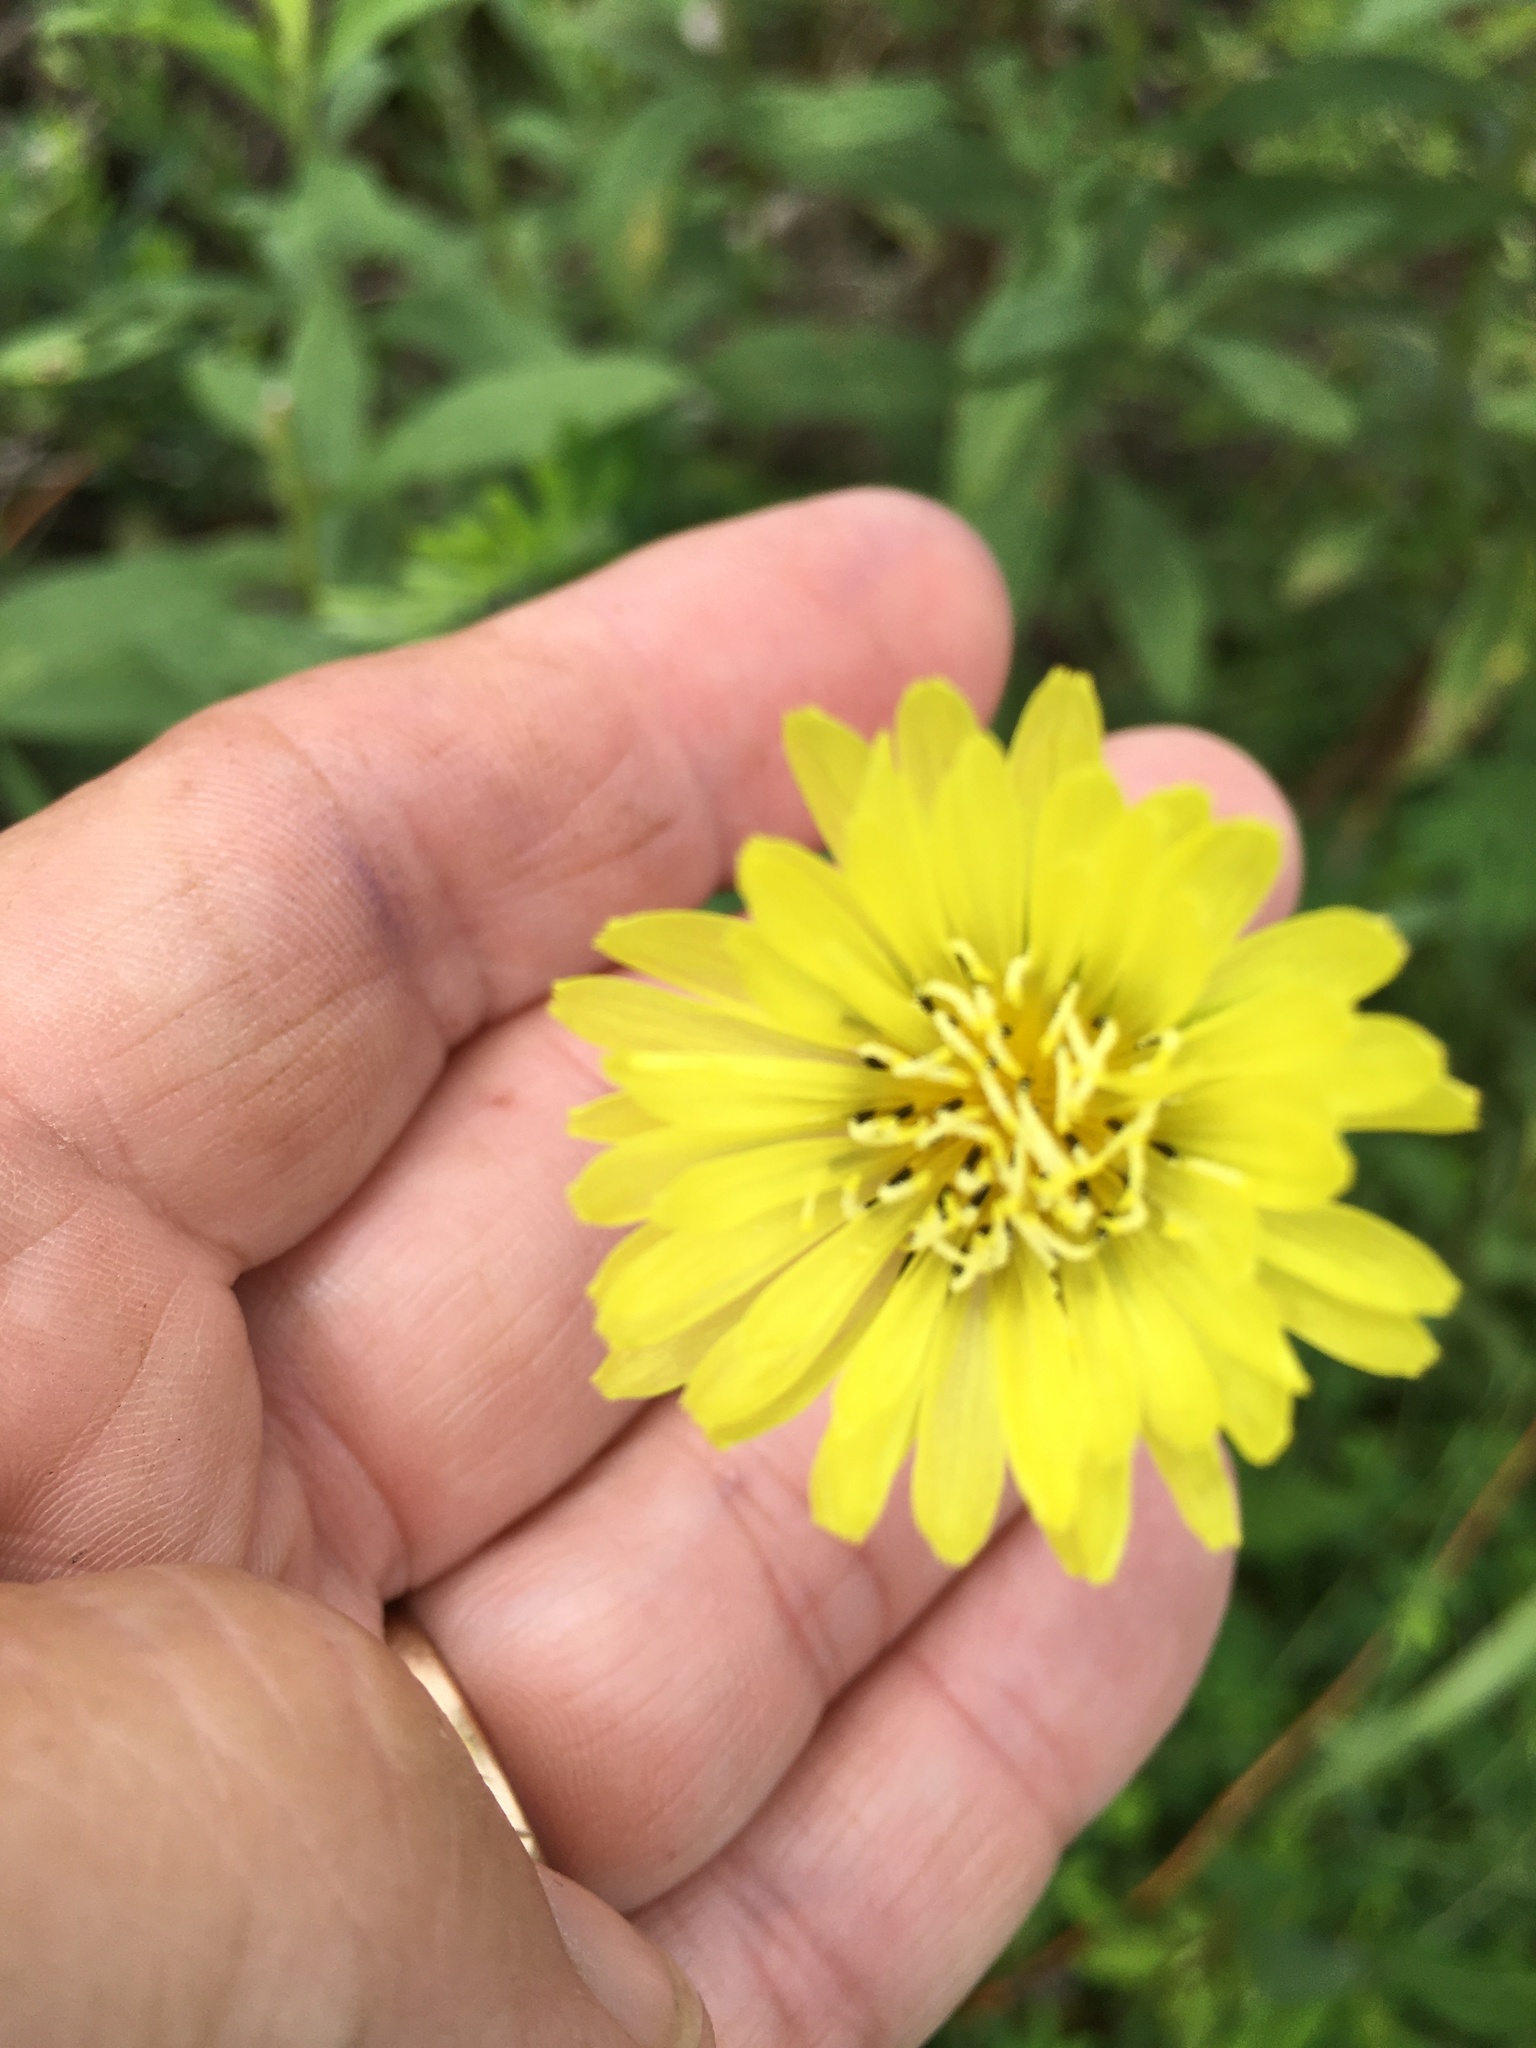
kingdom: Plantae
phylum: Tracheophyta
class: Magnoliopsida
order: Asterales
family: Asteraceae
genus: Pyrrhopappus
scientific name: Pyrrhopappus carolinianus
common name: Carolina desert-chicory
